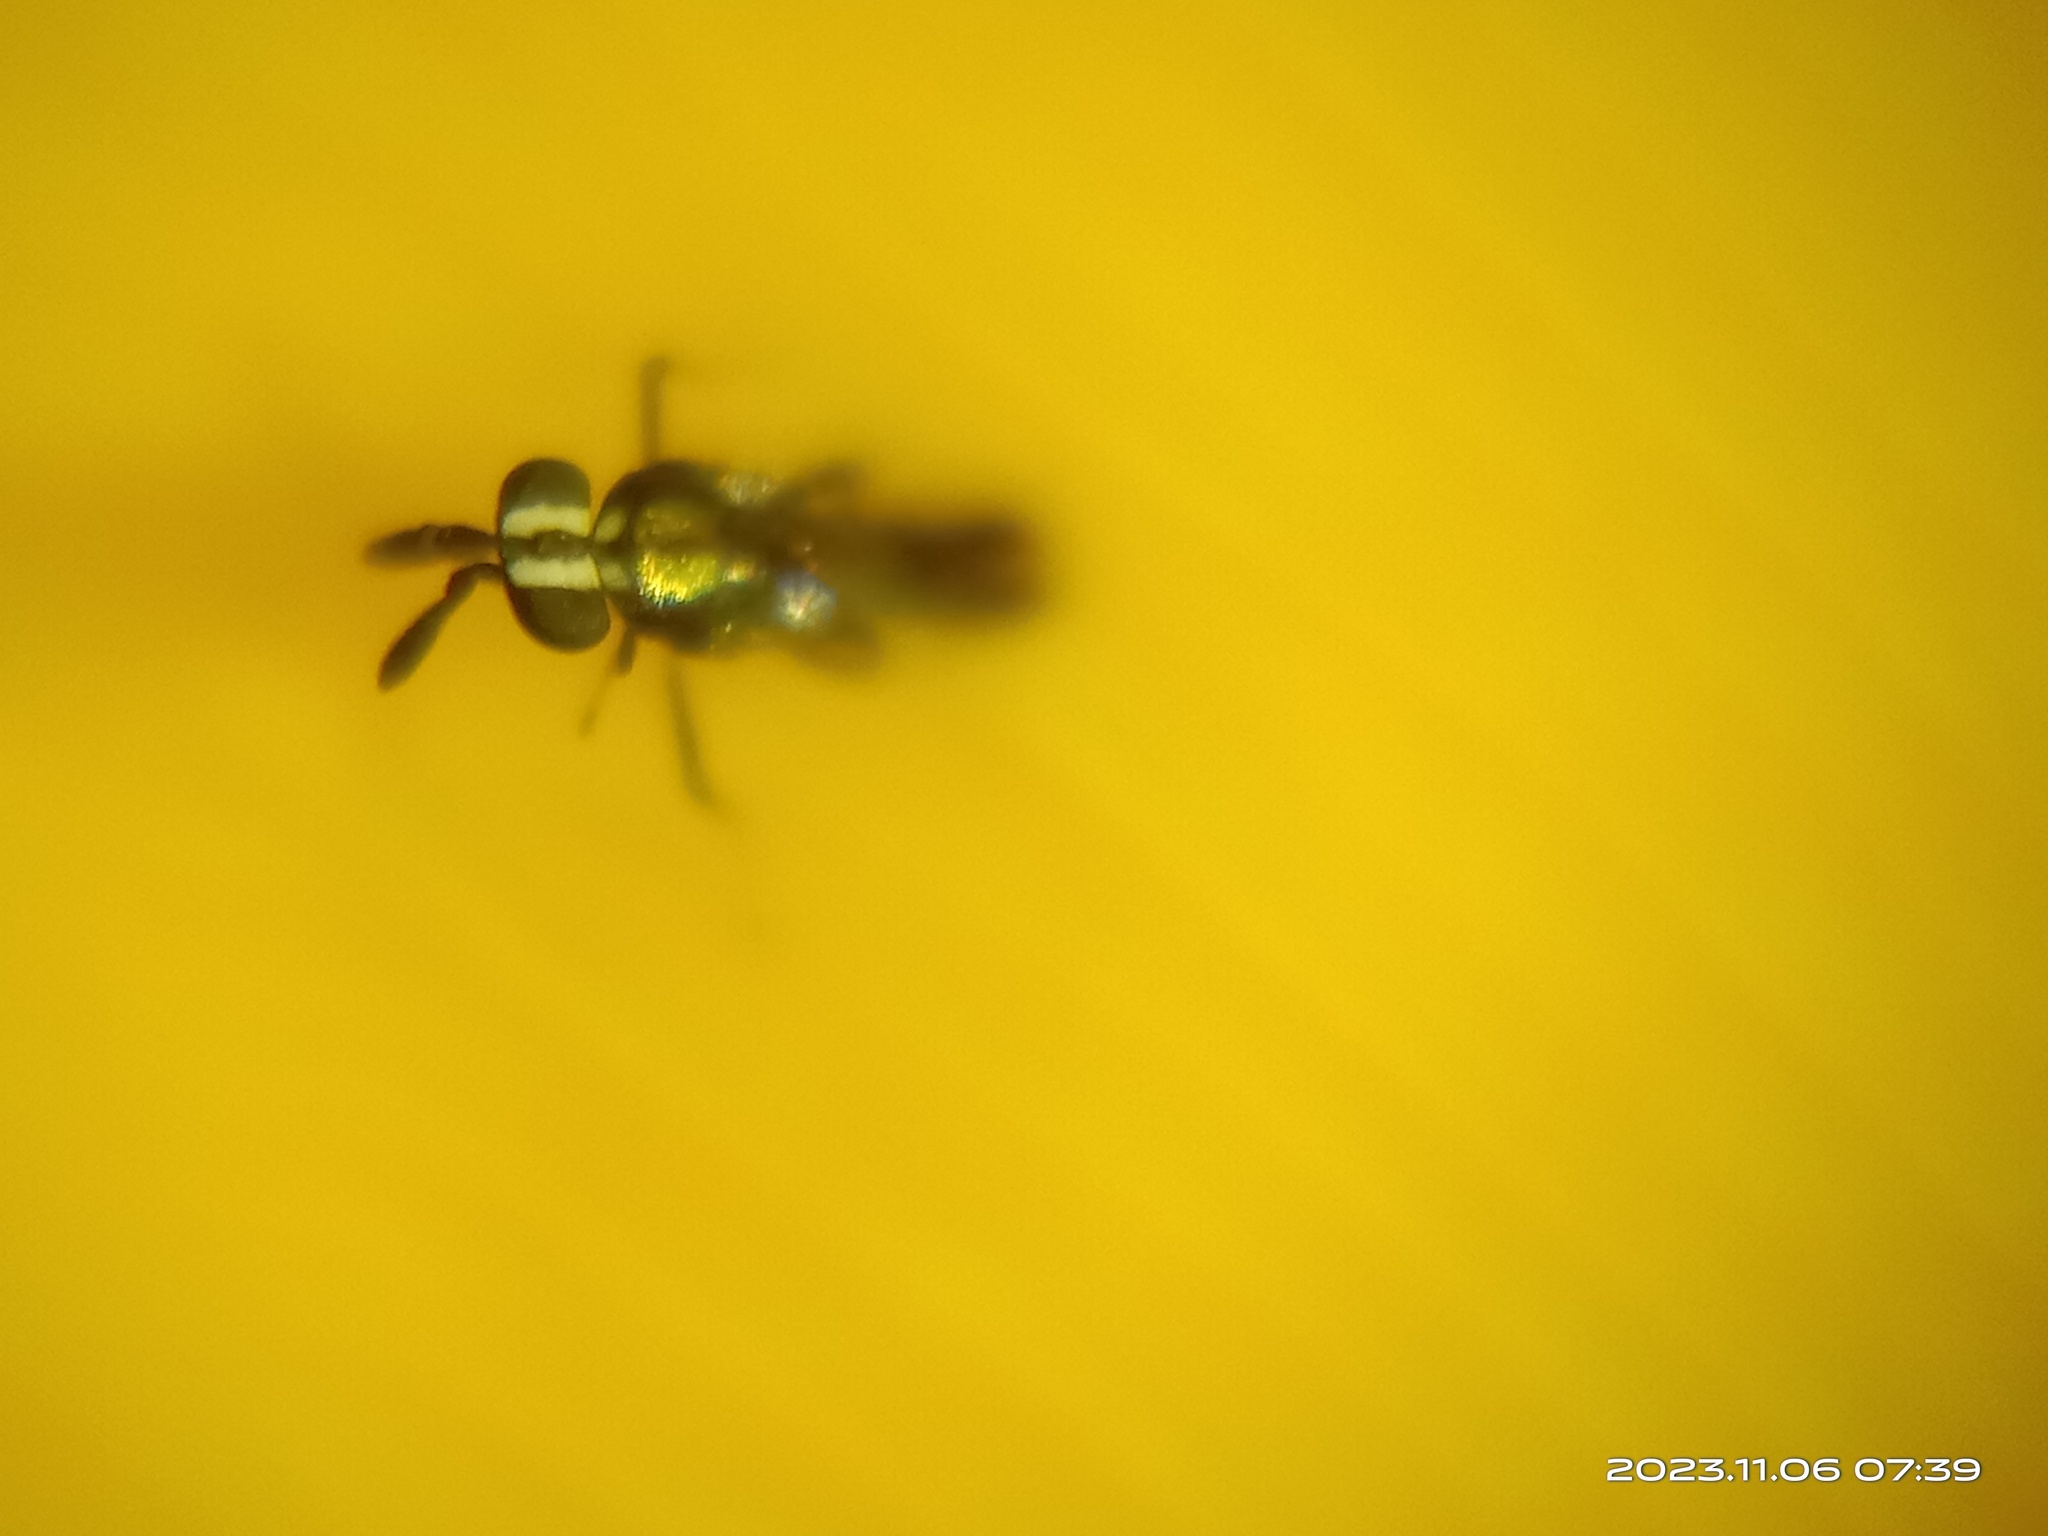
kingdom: Animalia
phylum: Arthropoda
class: Insecta
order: Hymenoptera
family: Encyrtidae
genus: Comperiella
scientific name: Comperiella bifasciata
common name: Parasitoid wasp
